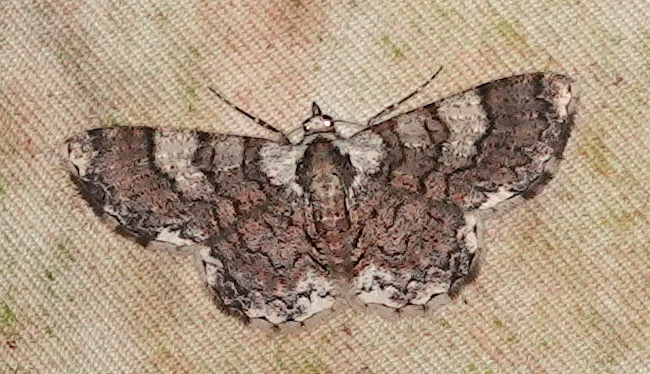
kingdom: Animalia
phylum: Arthropoda
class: Insecta
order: Lepidoptera
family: Geometridae
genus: Myrioblephara
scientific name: Myrioblephara geniculata
